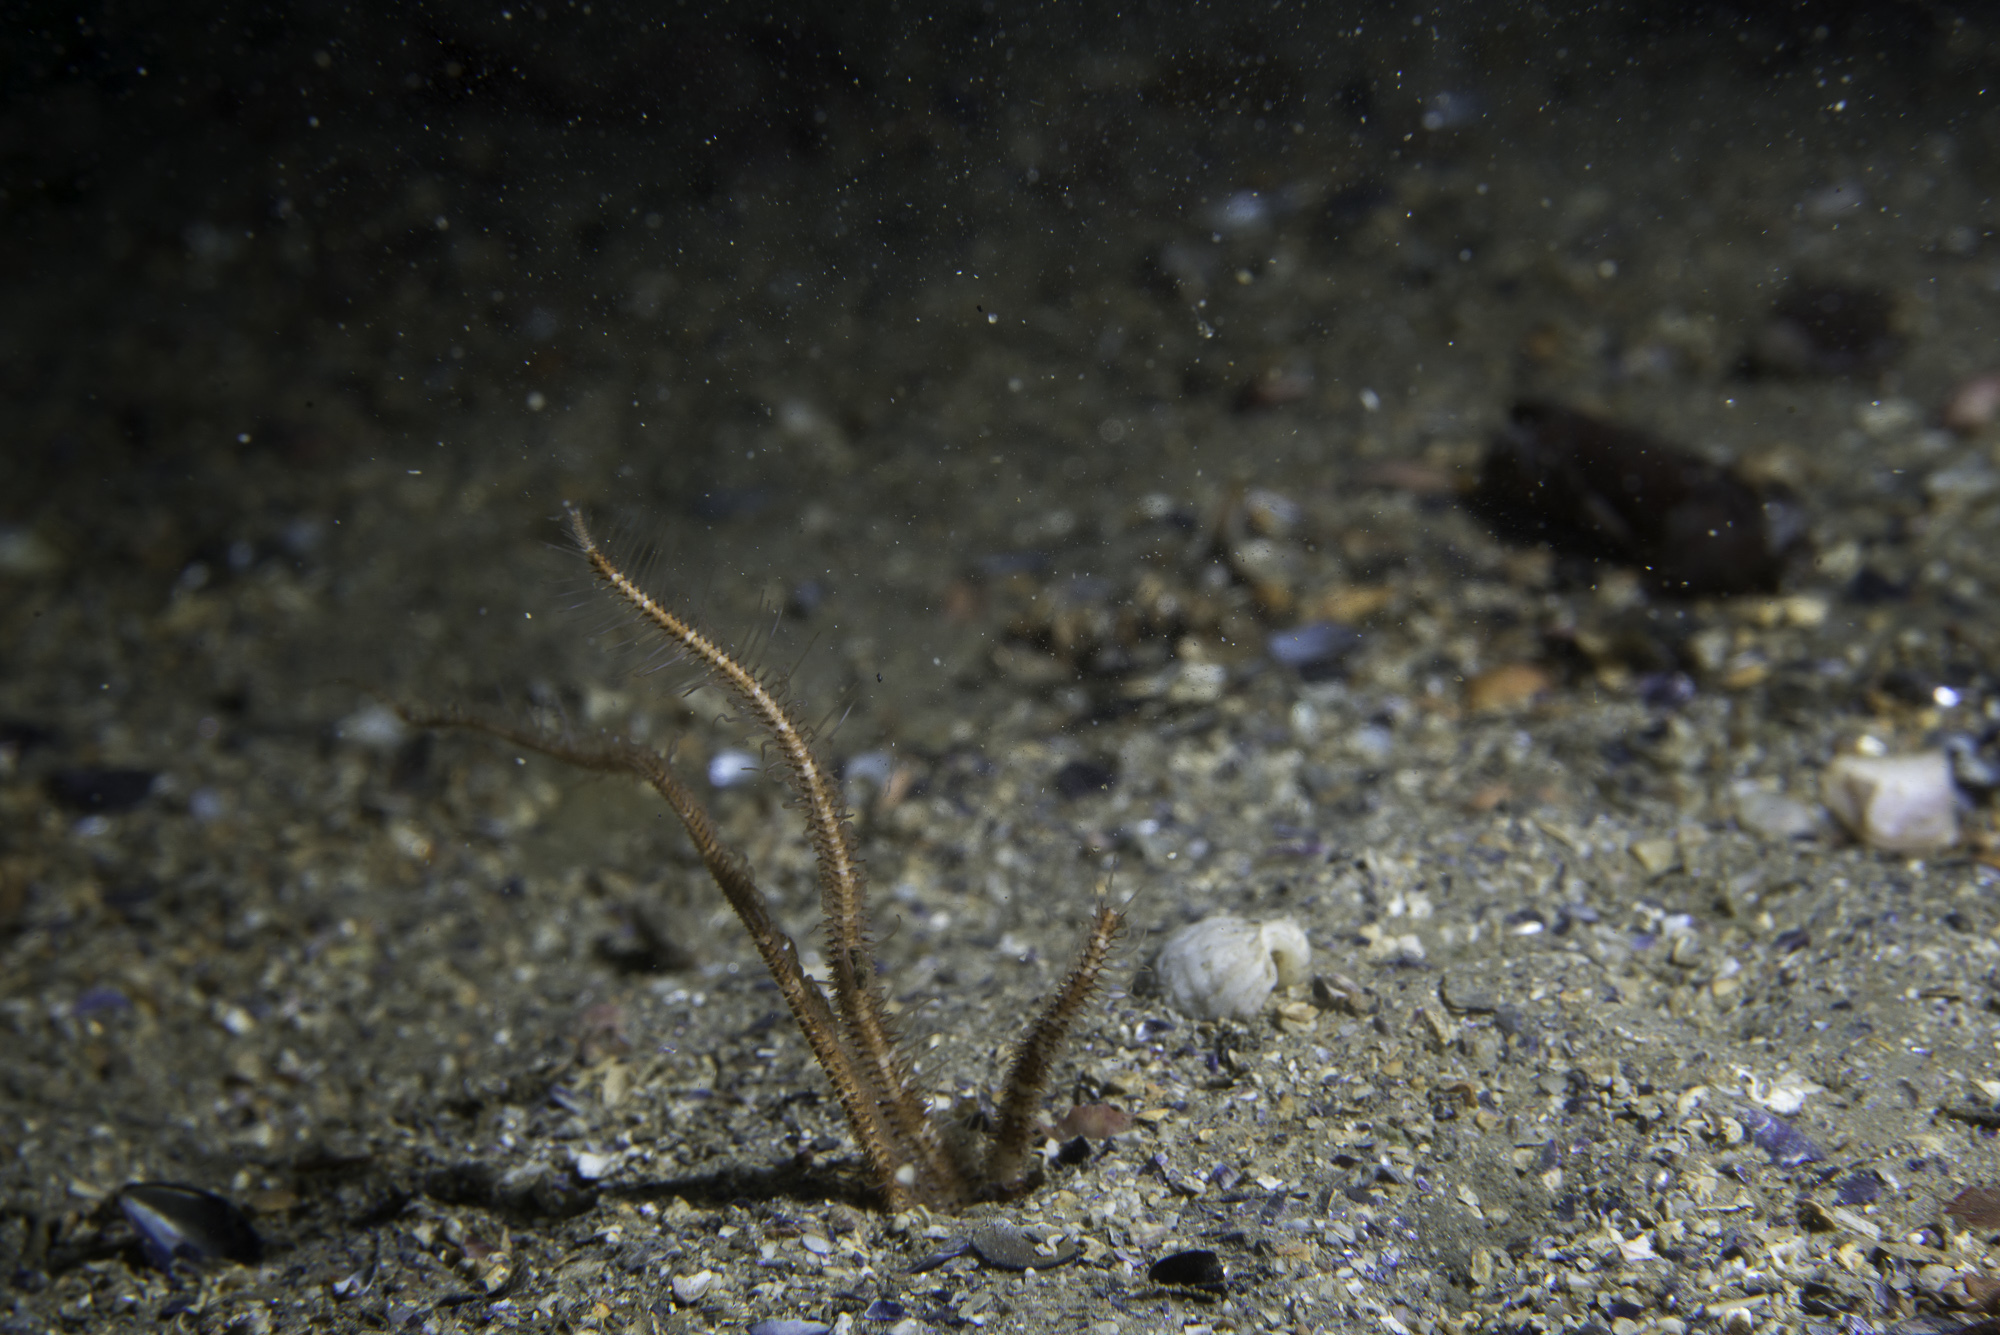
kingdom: Animalia
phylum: Echinodermata
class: Ophiuroidea
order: Amphilepidida
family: Ophiopsilidae
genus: Ophiopsila
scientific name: Ophiopsila annulosa
